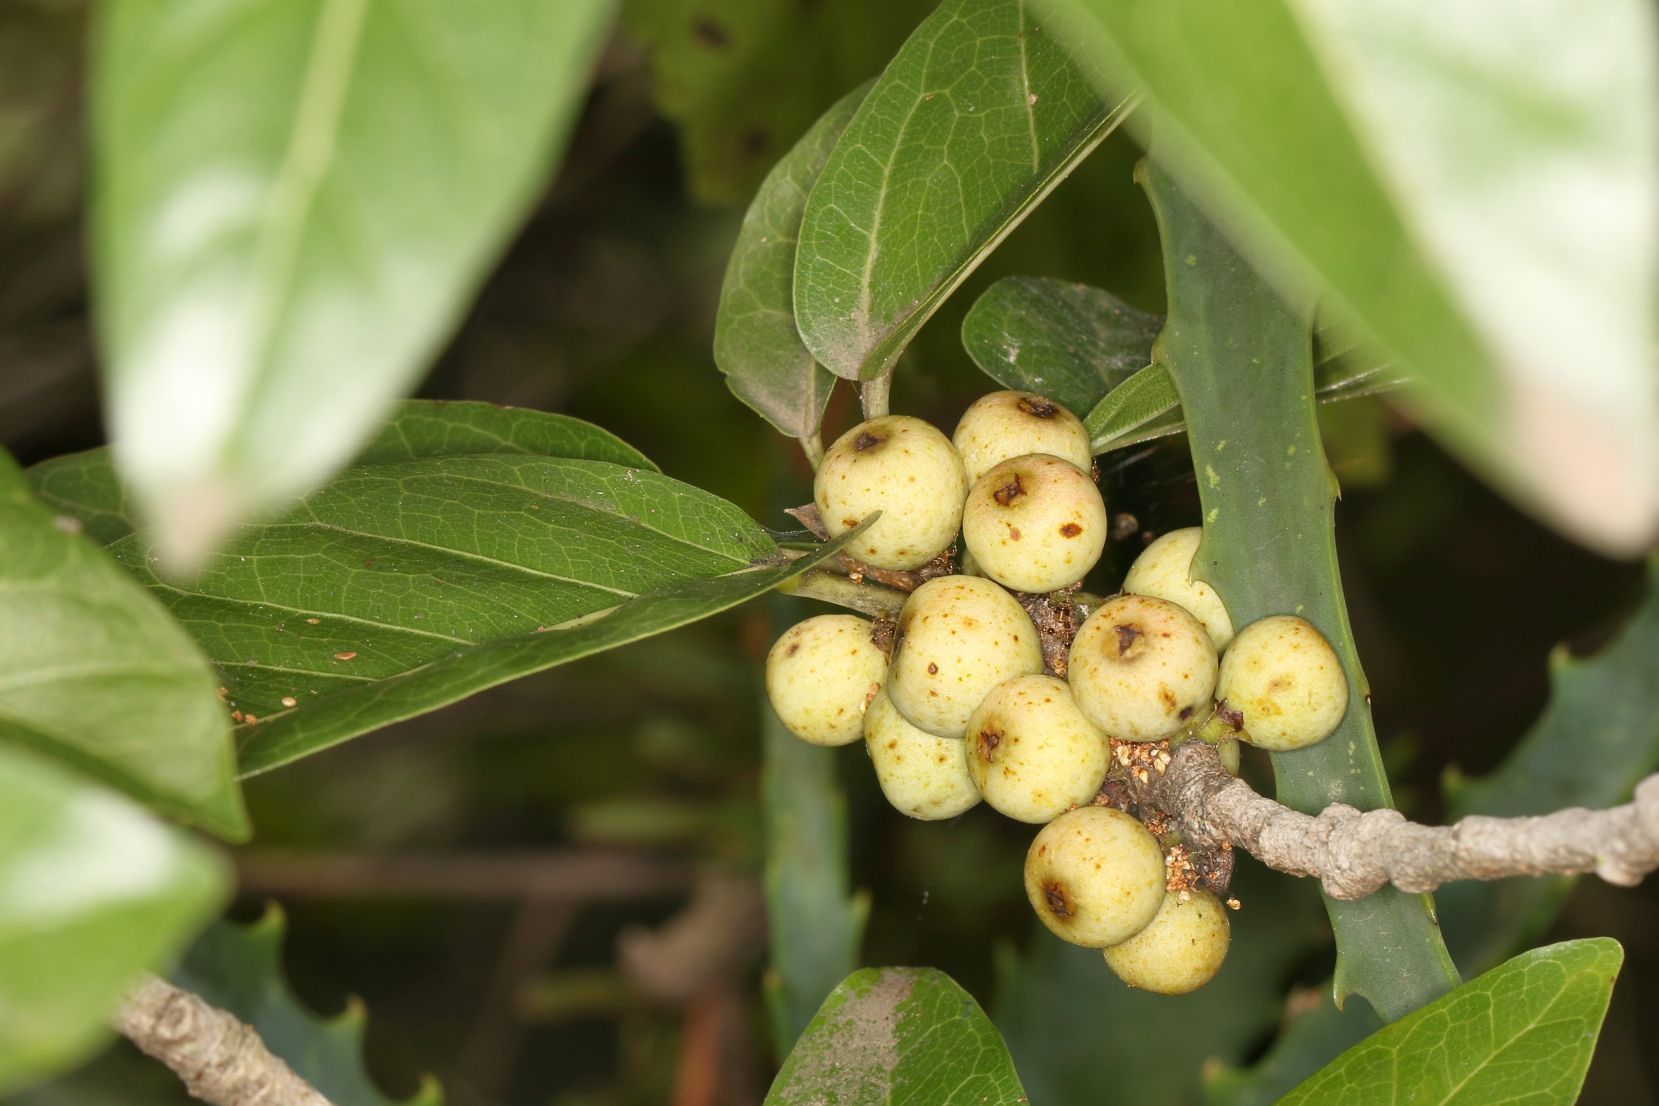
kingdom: Plantae
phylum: Tracheophyta
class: Magnoliopsida
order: Rosales
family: Moraceae
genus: Ficus
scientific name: Ficus ingens
